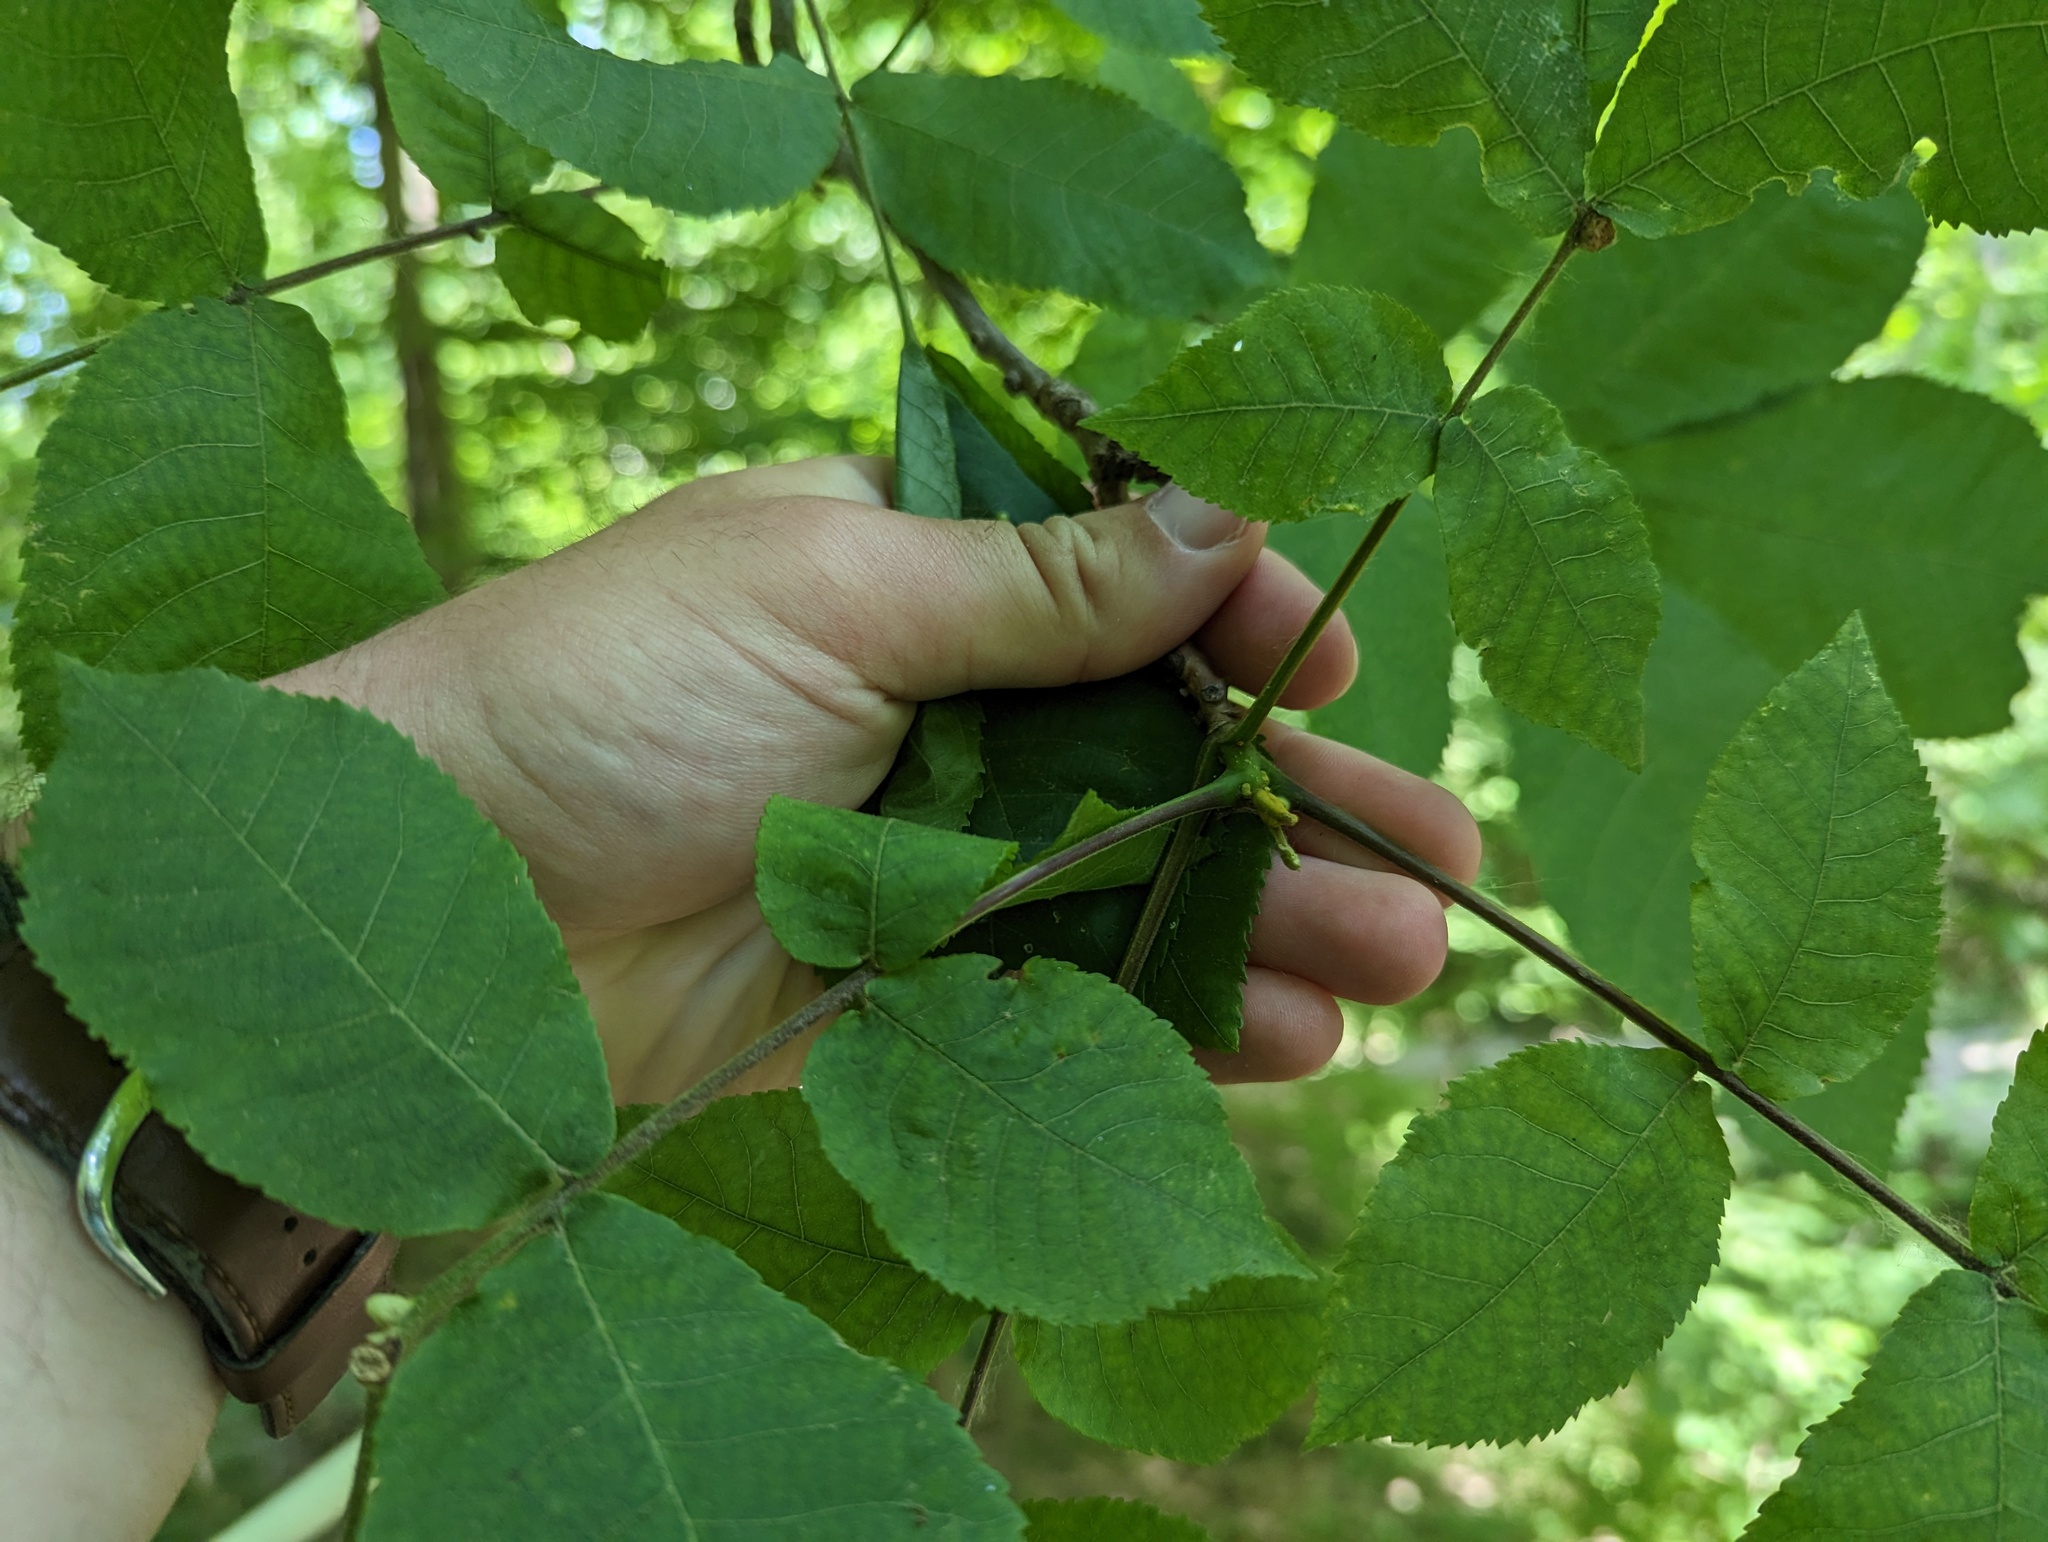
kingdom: Plantae
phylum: Tracheophyta
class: Magnoliopsida
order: Fagales
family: Juglandaceae
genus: Carya
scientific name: Carya cordiformis
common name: Bitternut hickory
